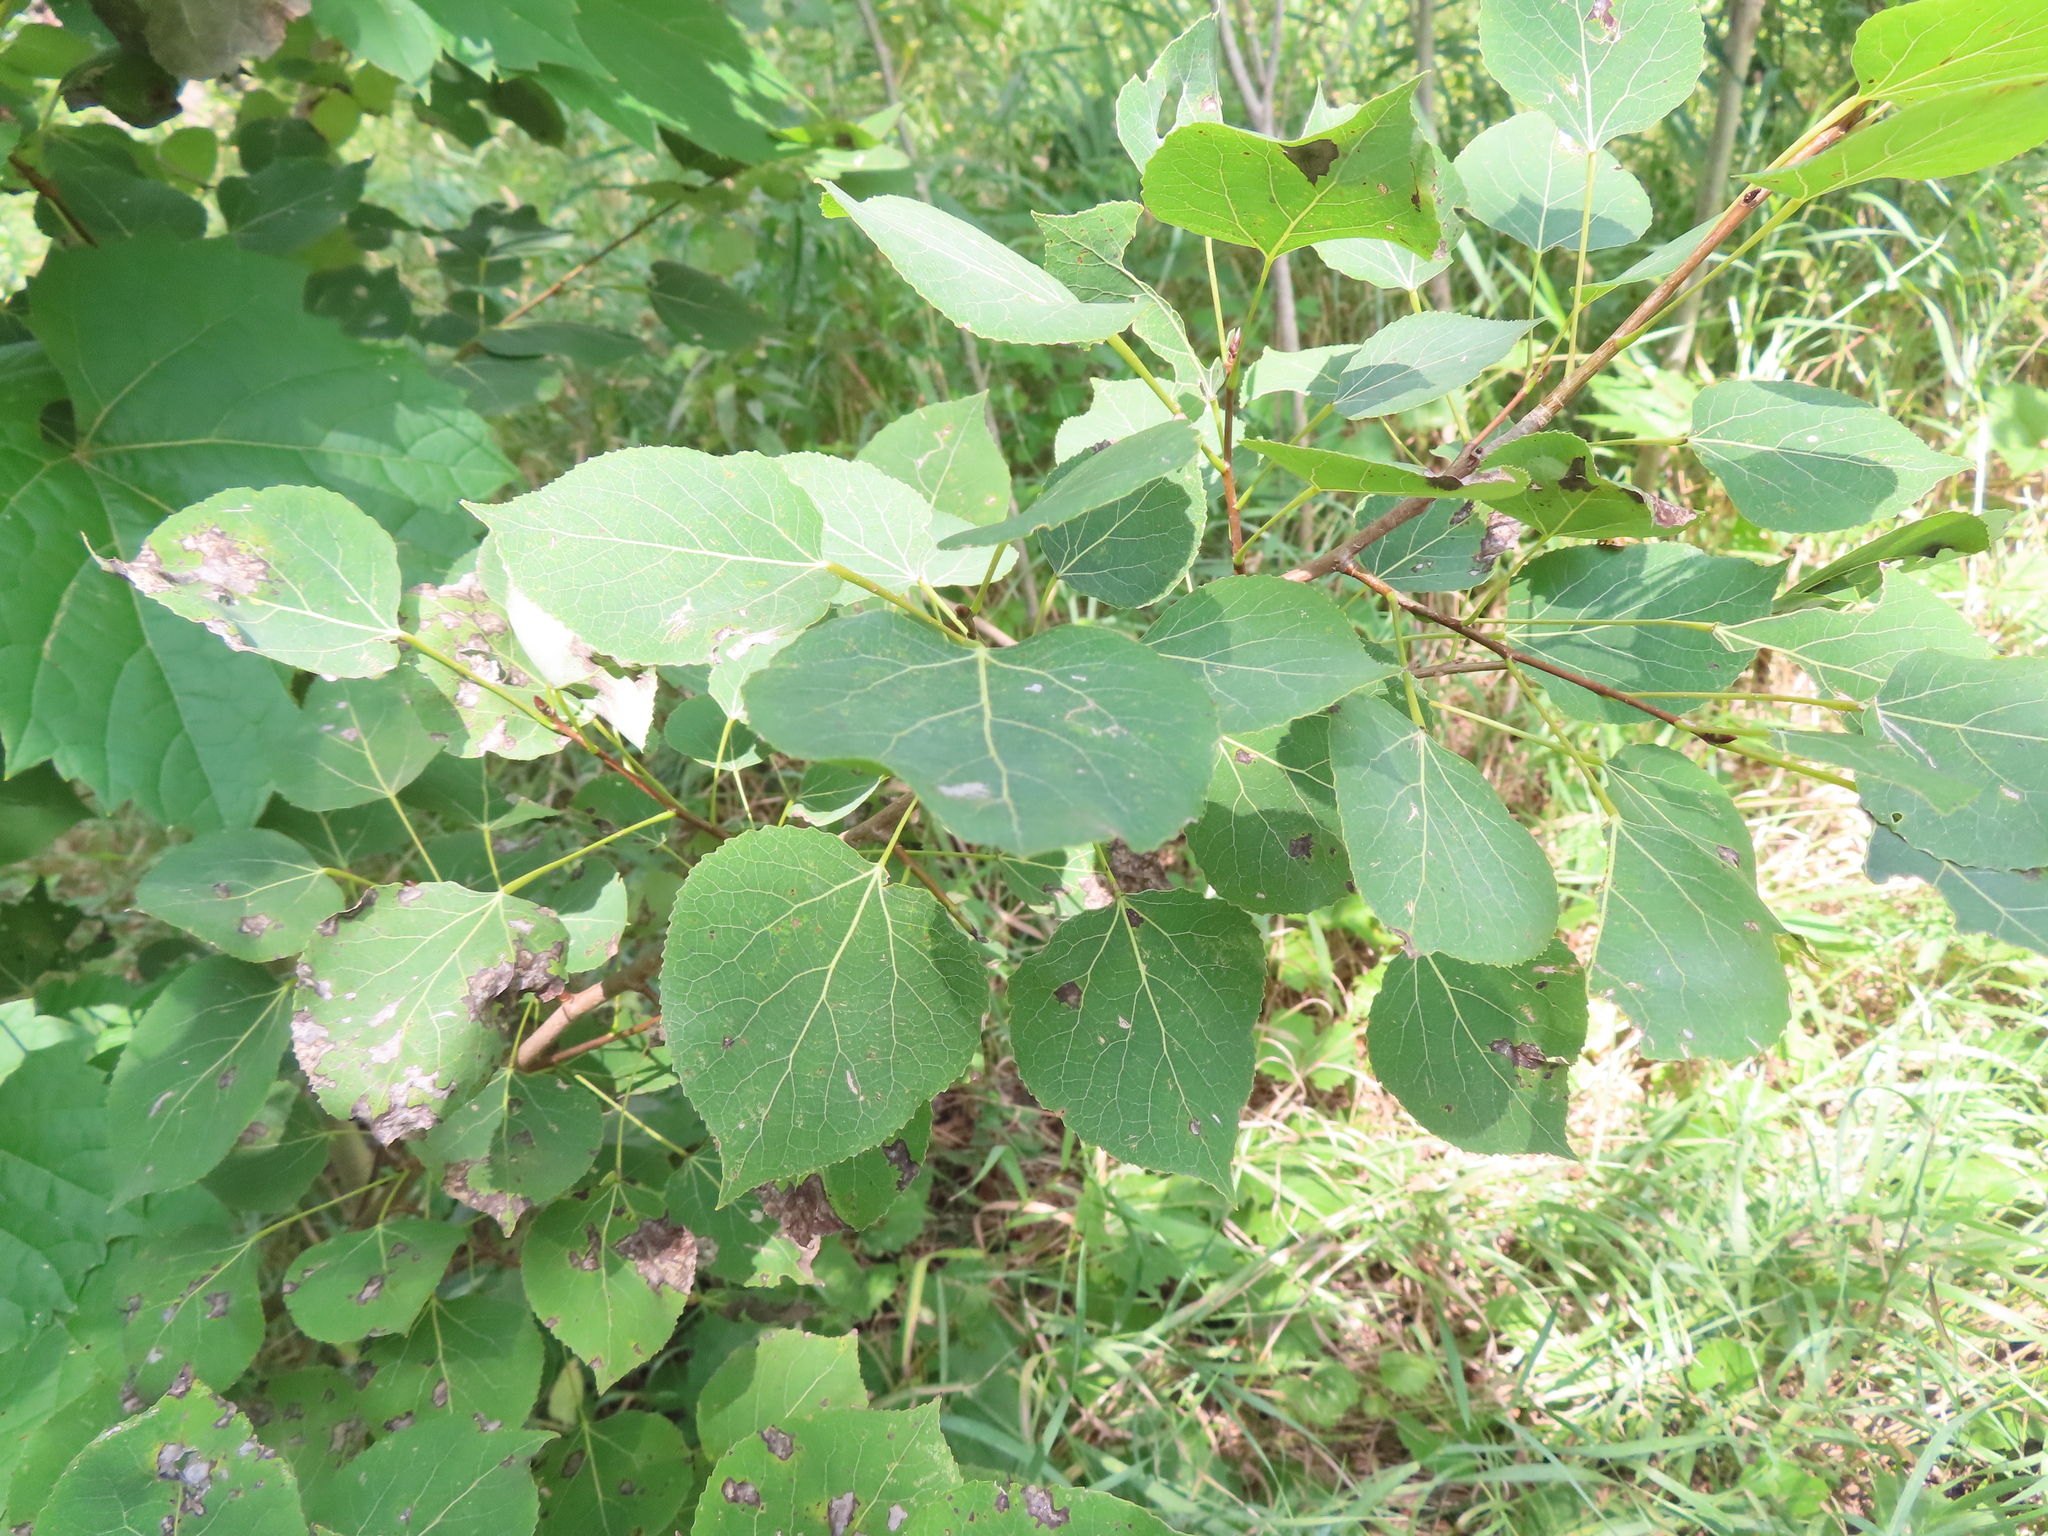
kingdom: Plantae
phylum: Tracheophyta
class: Magnoliopsida
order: Malpighiales
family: Salicaceae
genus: Populus
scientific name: Populus tremuloides
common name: Quaking aspen
